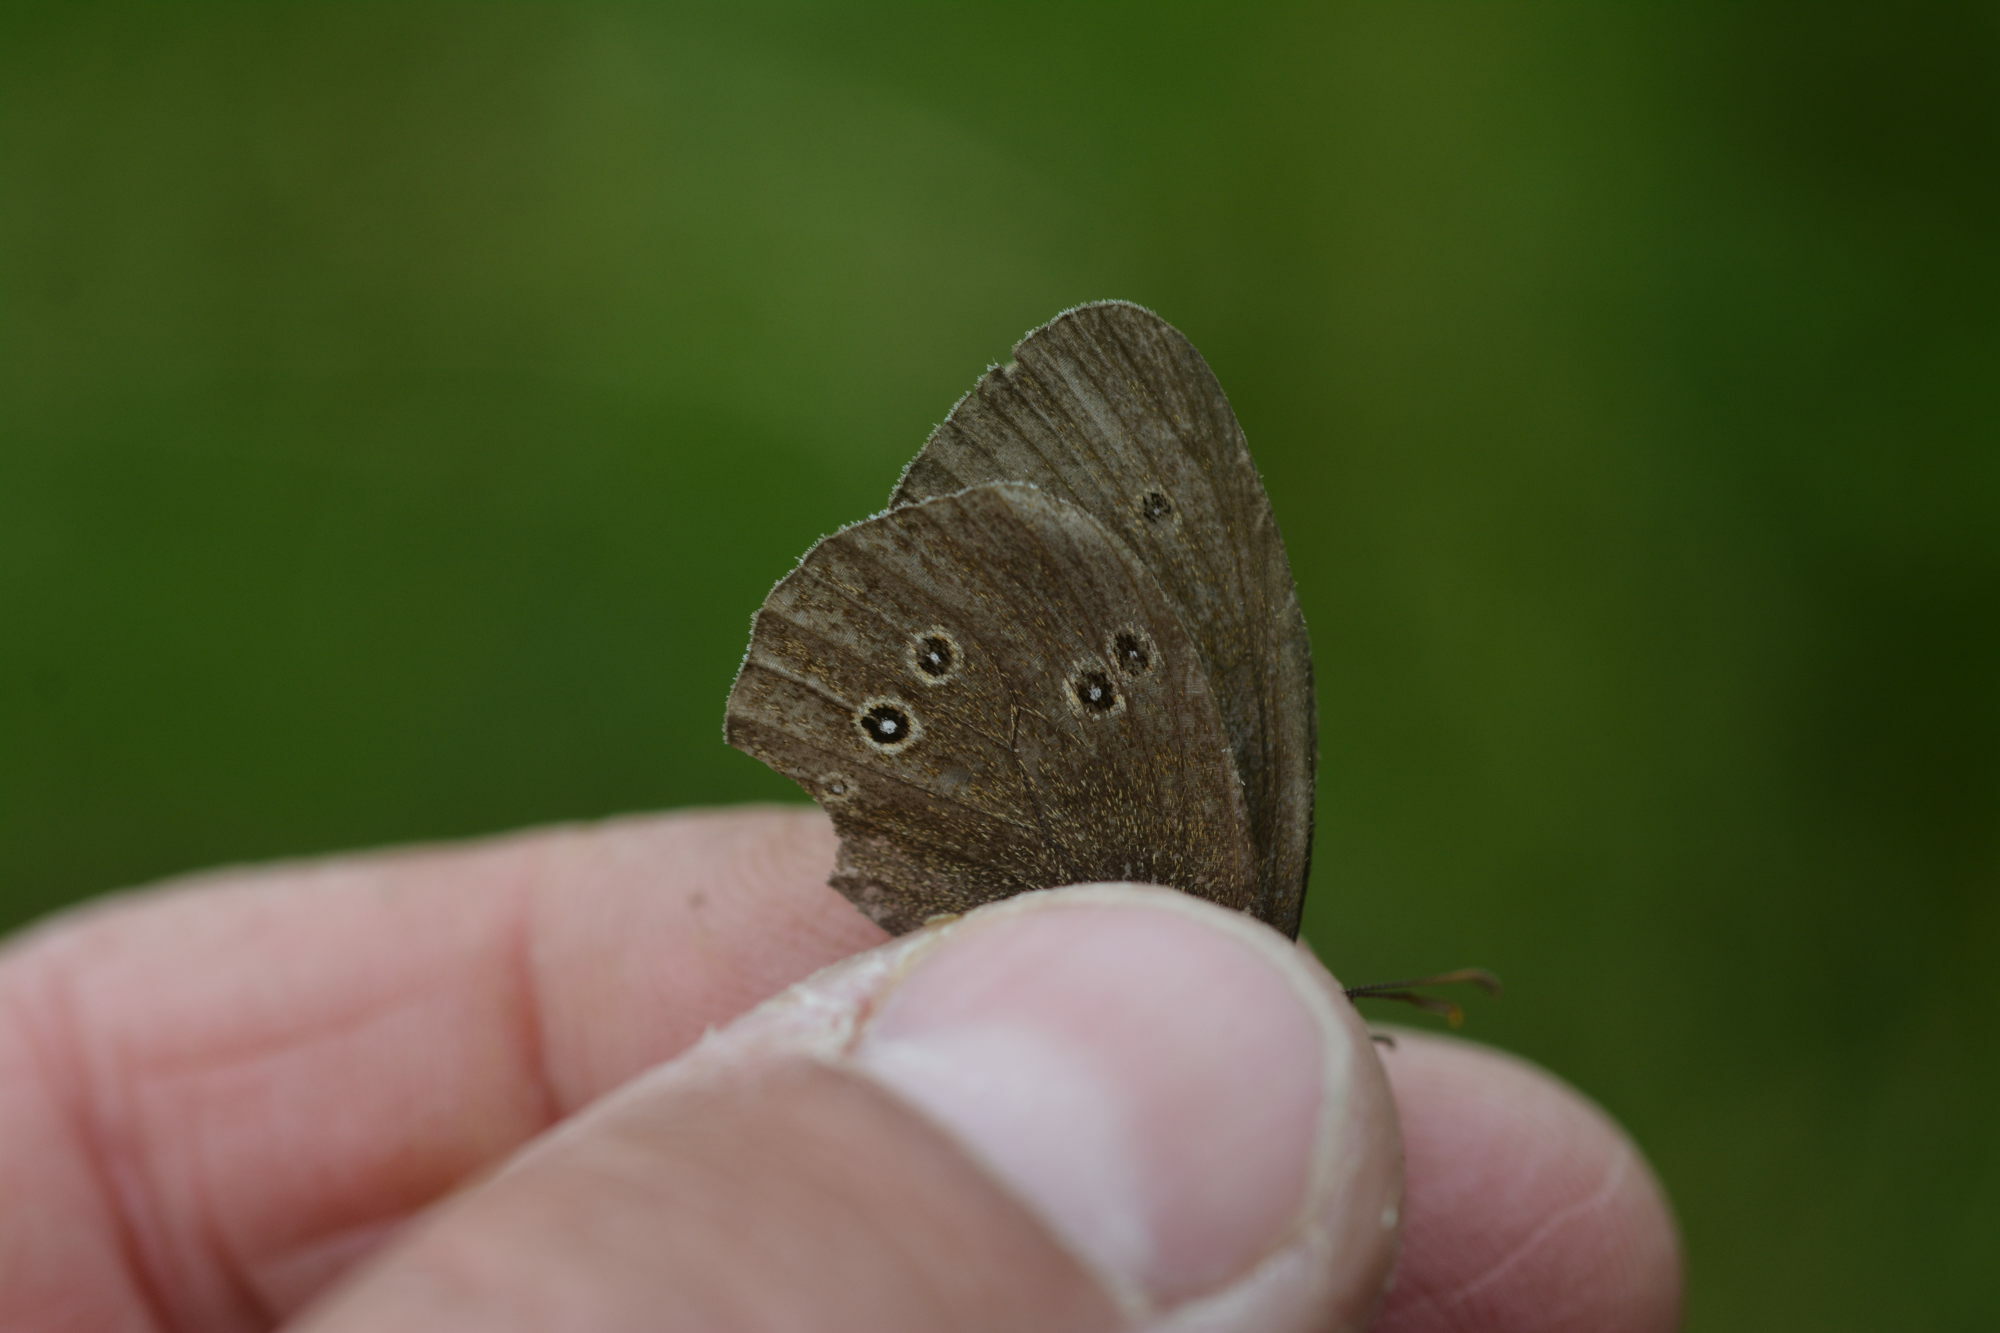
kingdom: Animalia
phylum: Arthropoda
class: Insecta
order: Lepidoptera
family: Nymphalidae
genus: Aphantopus
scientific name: Aphantopus hyperantus
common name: Ringlet
